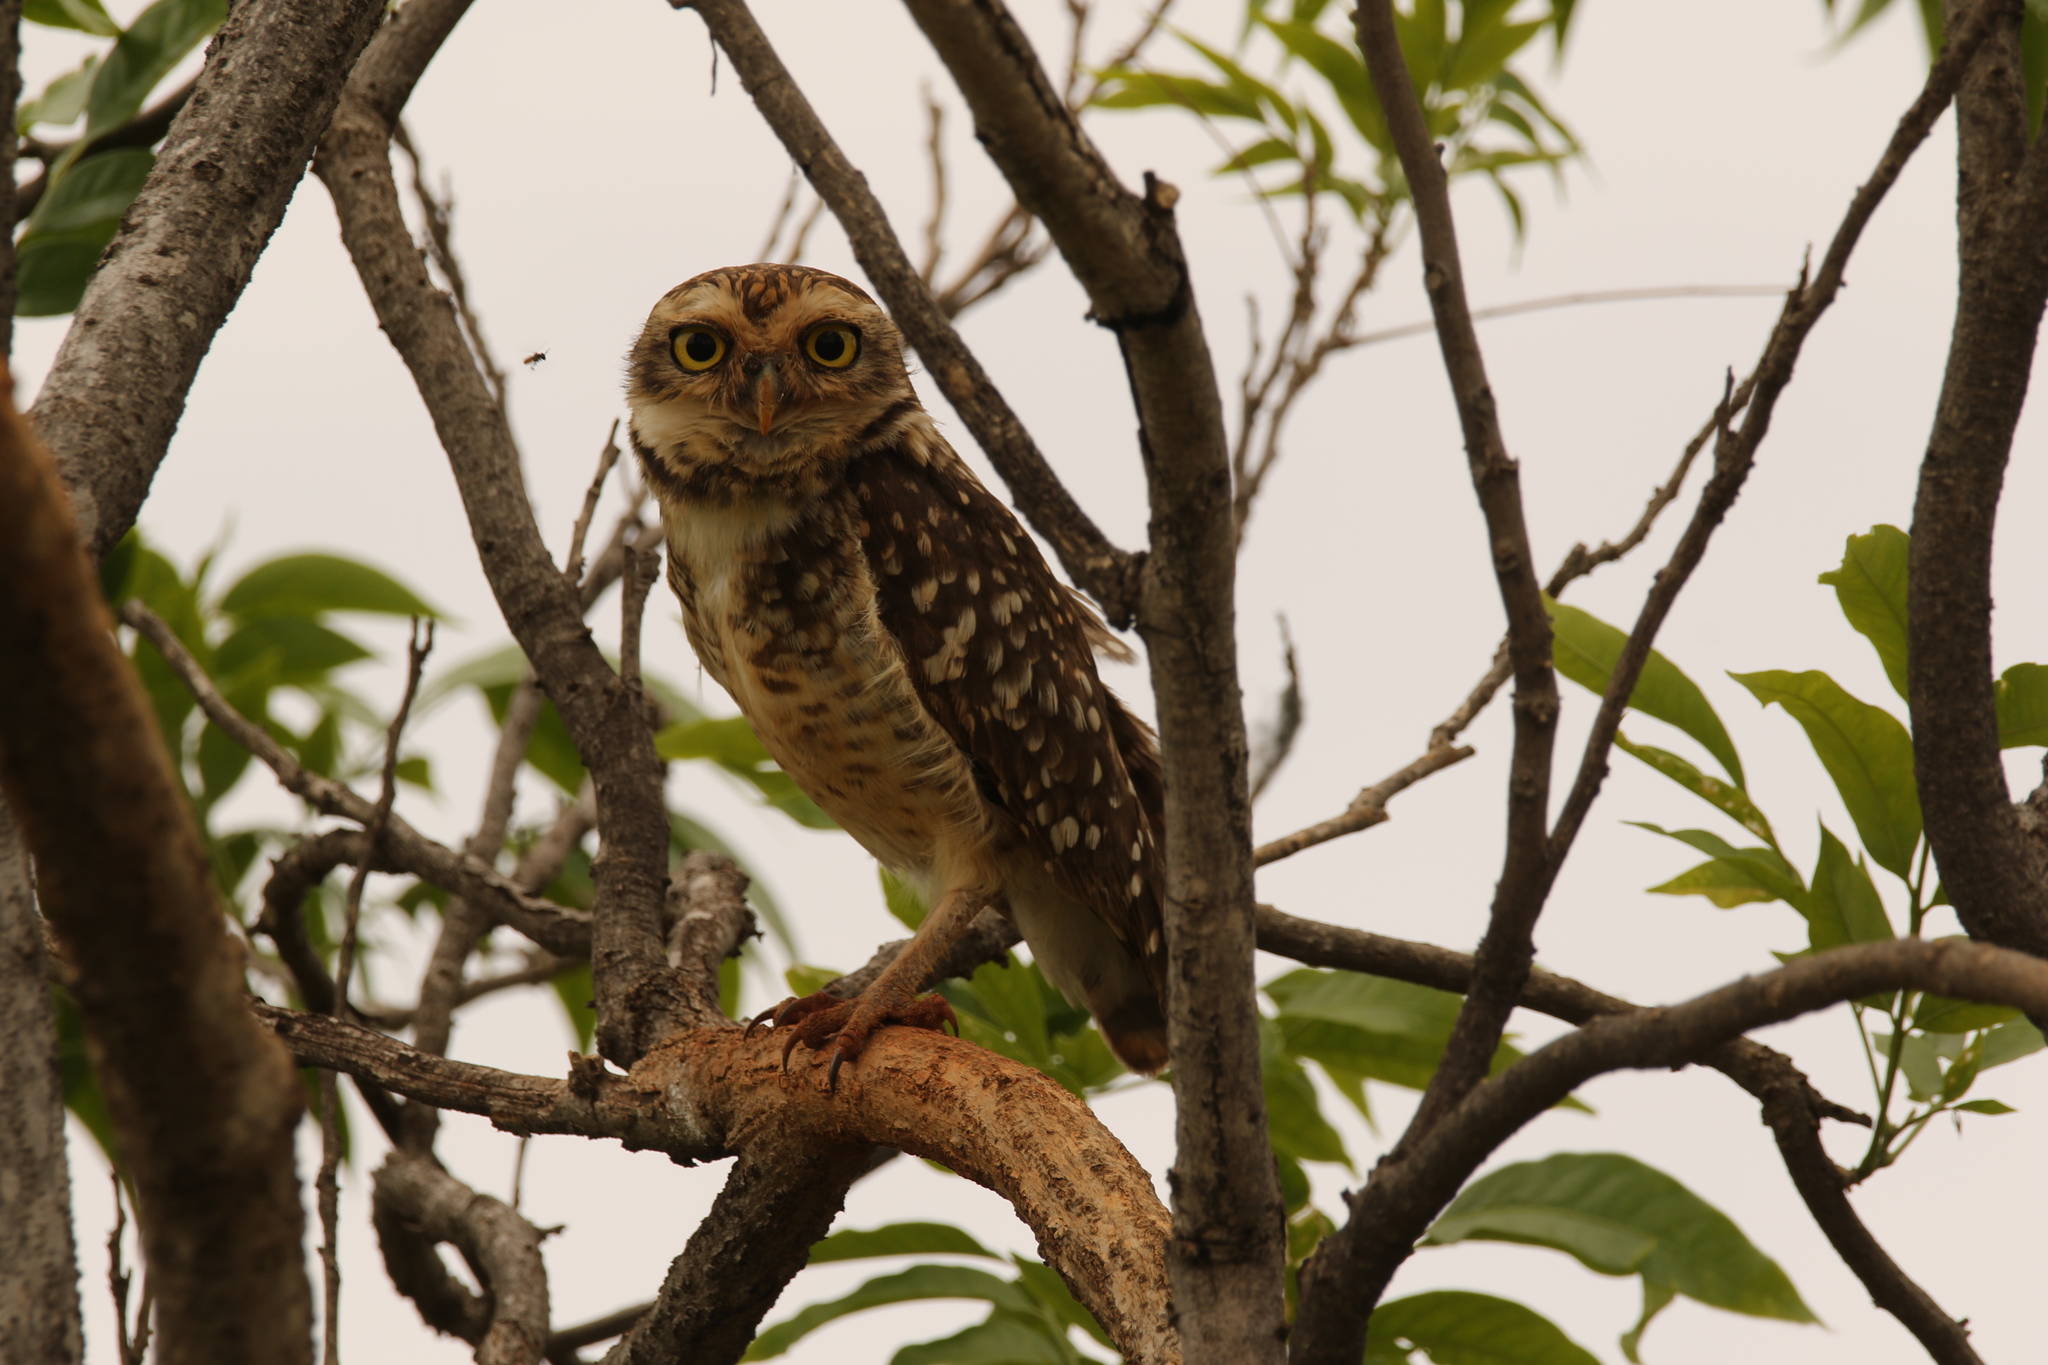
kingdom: Animalia
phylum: Chordata
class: Aves
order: Strigiformes
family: Strigidae
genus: Athene
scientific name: Athene cunicularia
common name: Burrowing owl
